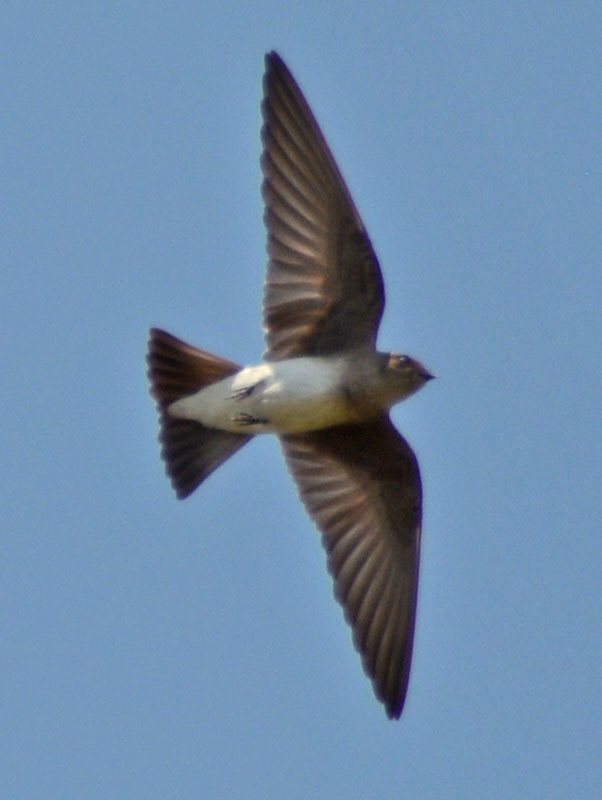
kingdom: Animalia
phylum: Chordata
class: Aves
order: Passeriformes
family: Hirundinidae
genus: Stelgidopteryx
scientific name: Stelgidopteryx serripennis
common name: Northern rough-winged swallow
